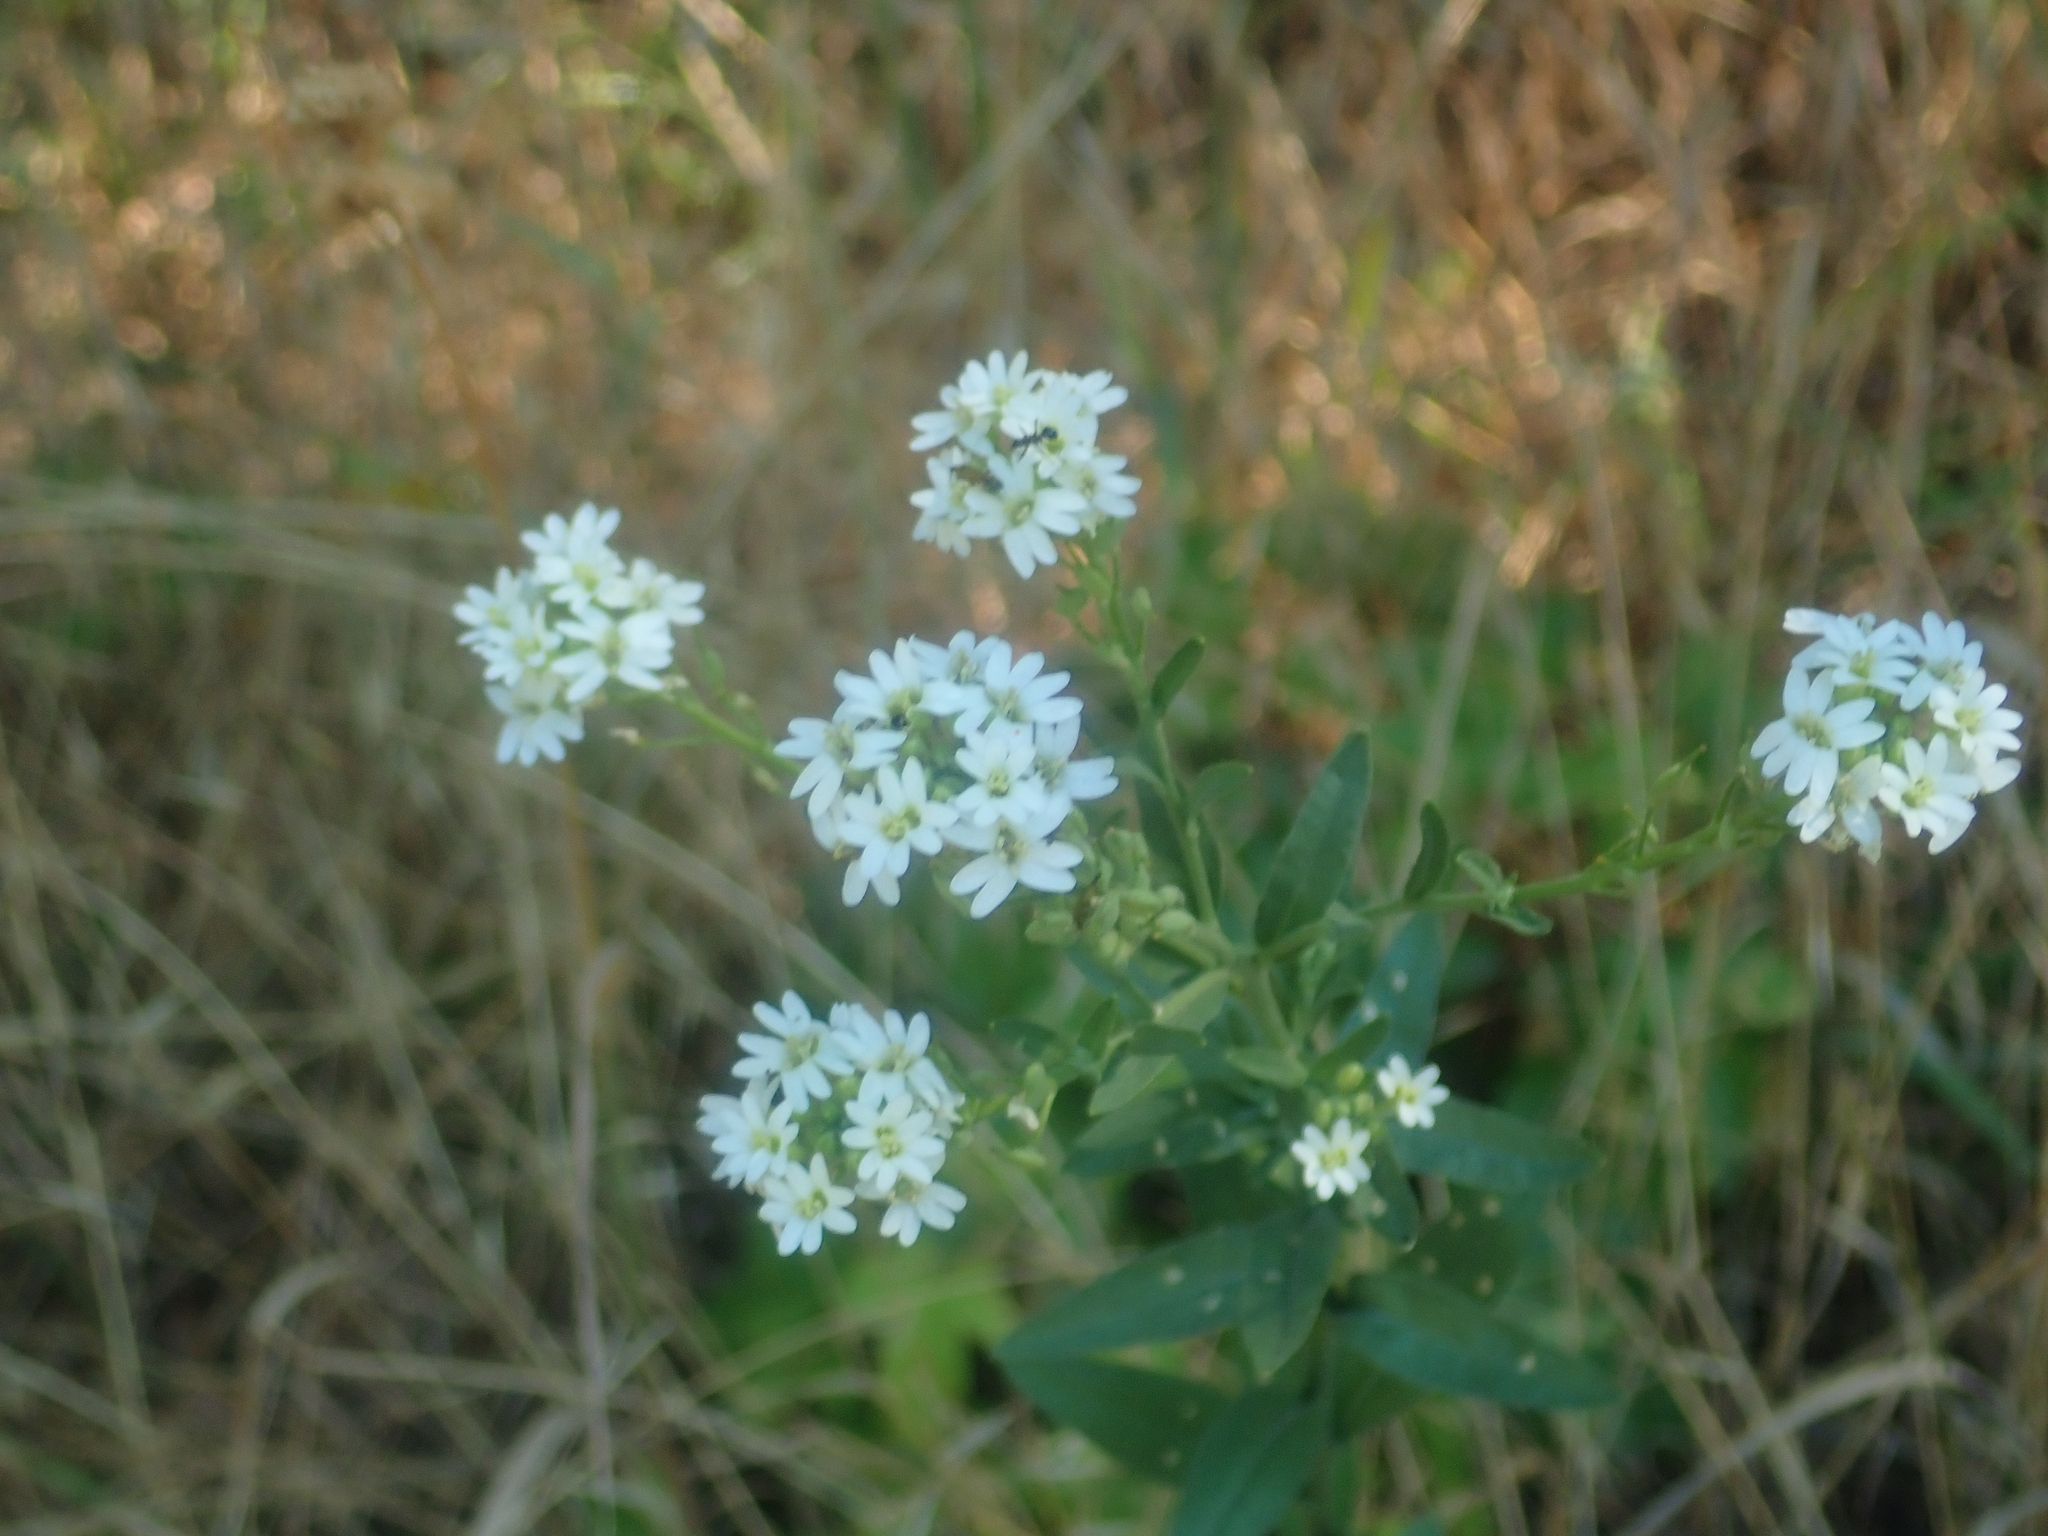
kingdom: Plantae
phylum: Tracheophyta
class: Magnoliopsida
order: Brassicales
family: Brassicaceae
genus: Berteroa
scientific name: Berteroa incana
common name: Hoary alison
